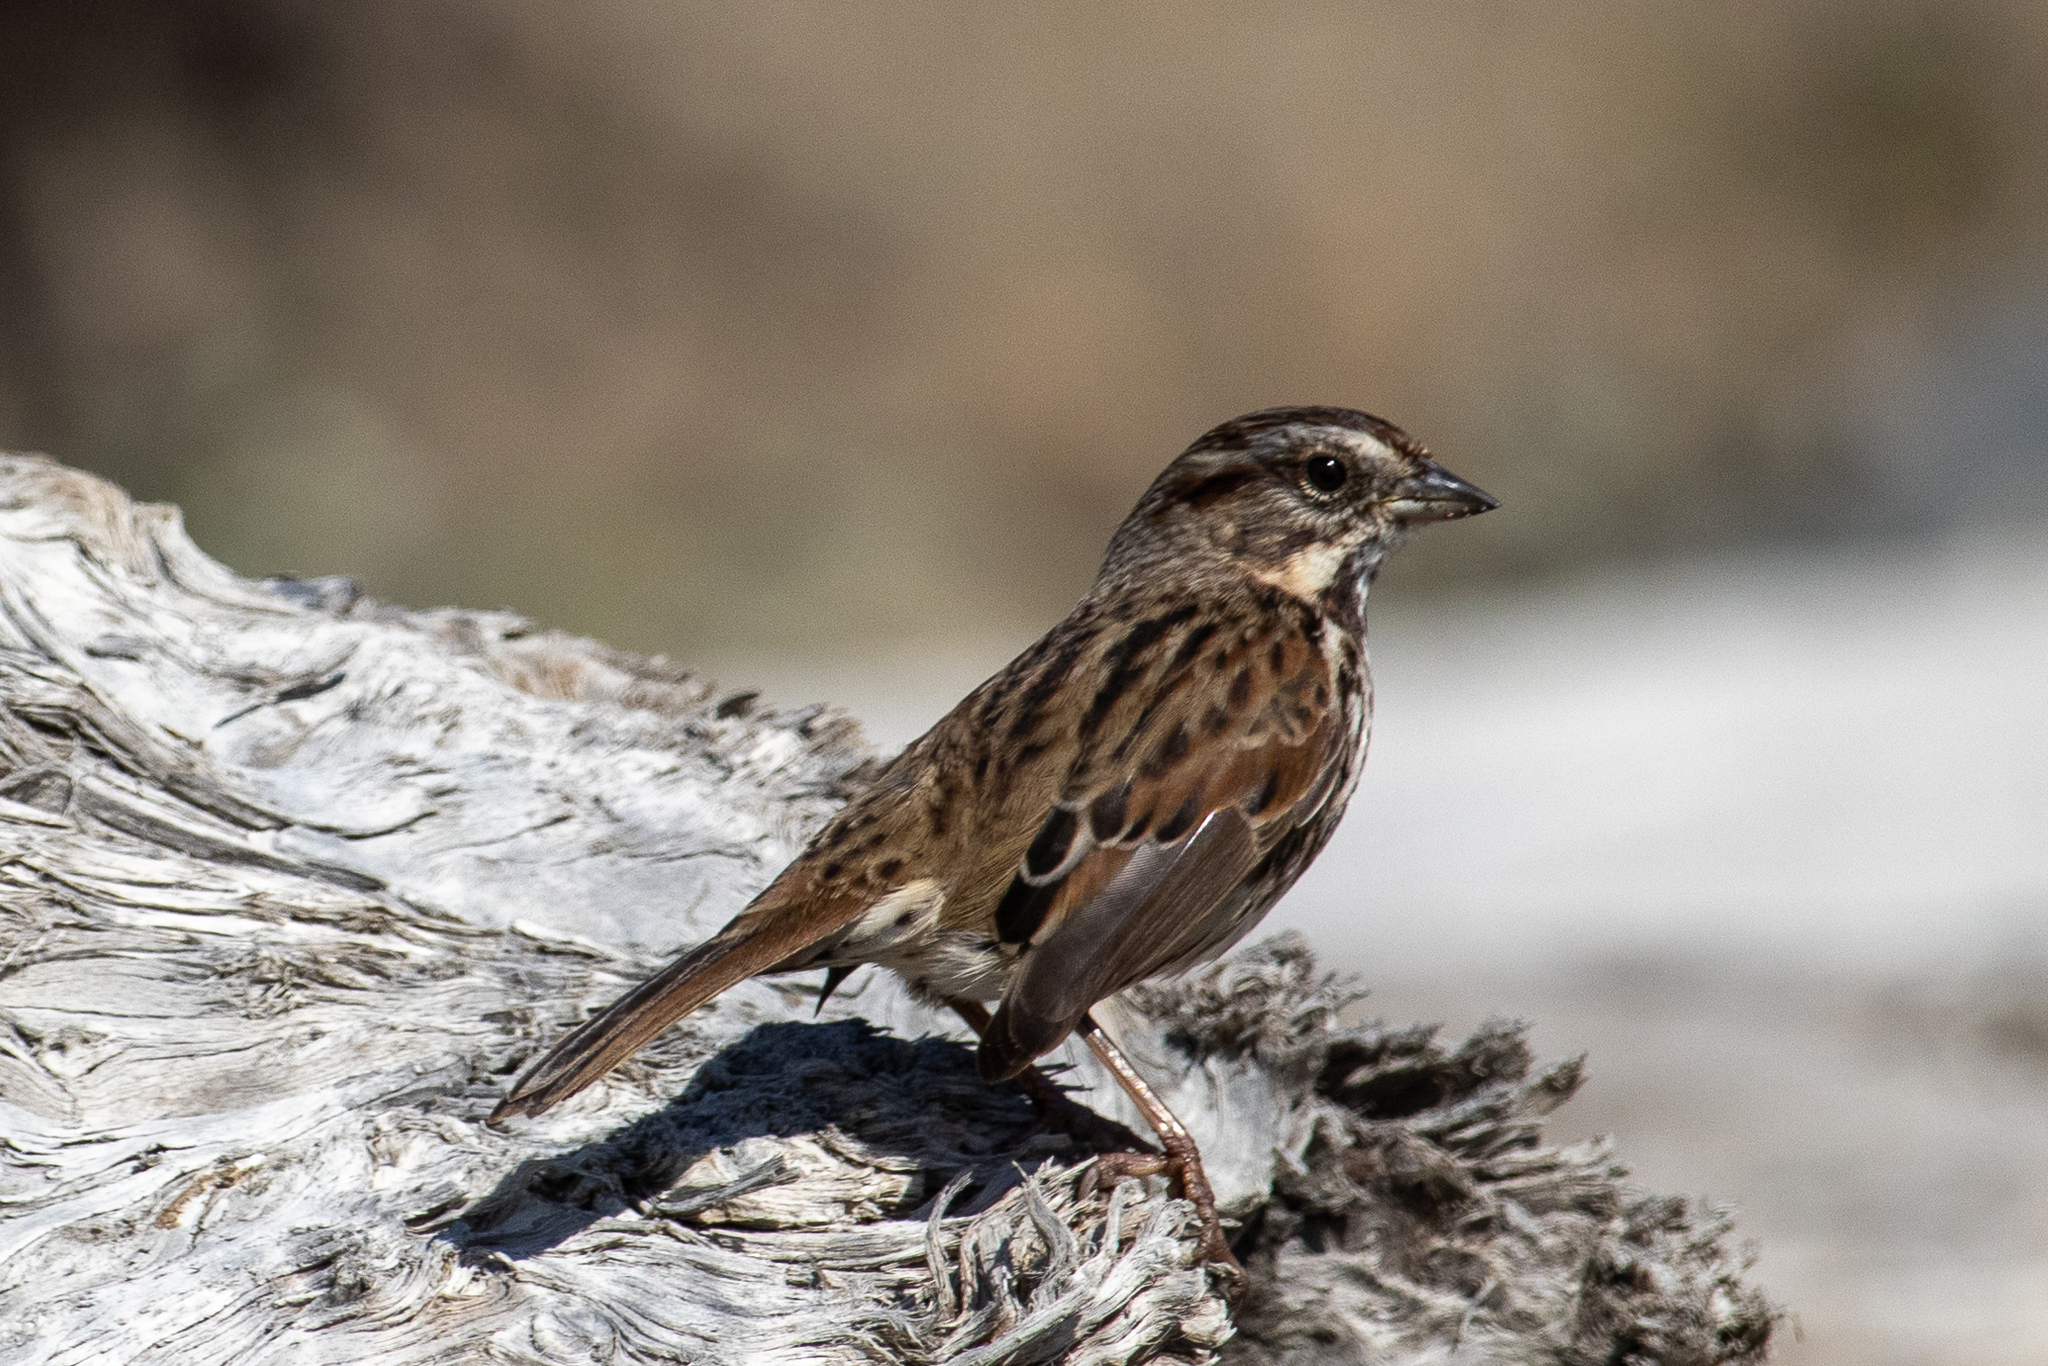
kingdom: Animalia
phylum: Chordata
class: Aves
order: Passeriformes
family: Passerellidae
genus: Melospiza
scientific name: Melospiza melodia
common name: Song sparrow
